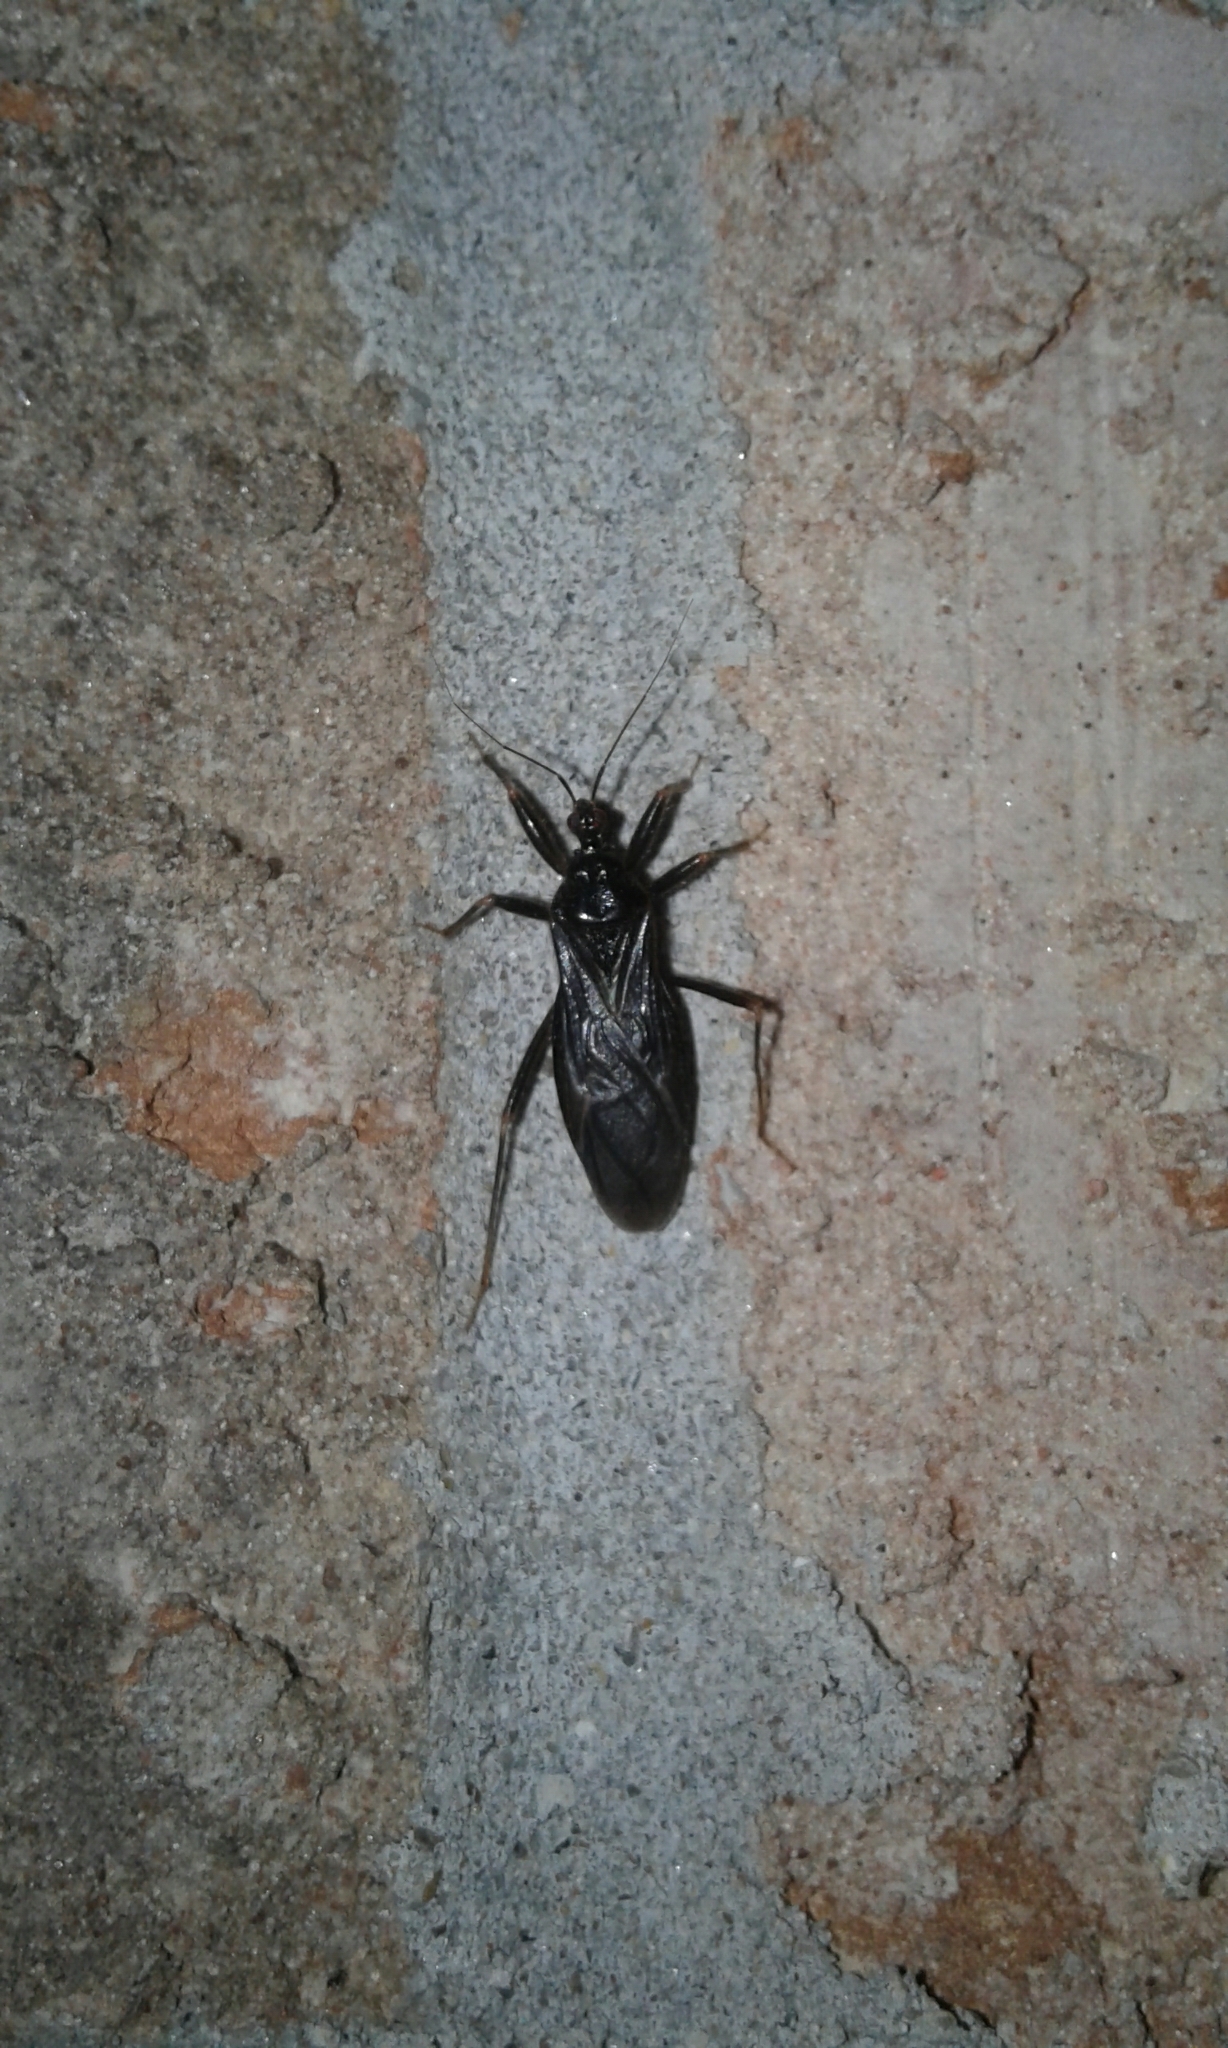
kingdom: Animalia
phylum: Arthropoda
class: Insecta
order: Hemiptera
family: Reduviidae
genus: Reduvius
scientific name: Reduvius personatus
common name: Masked hunter
